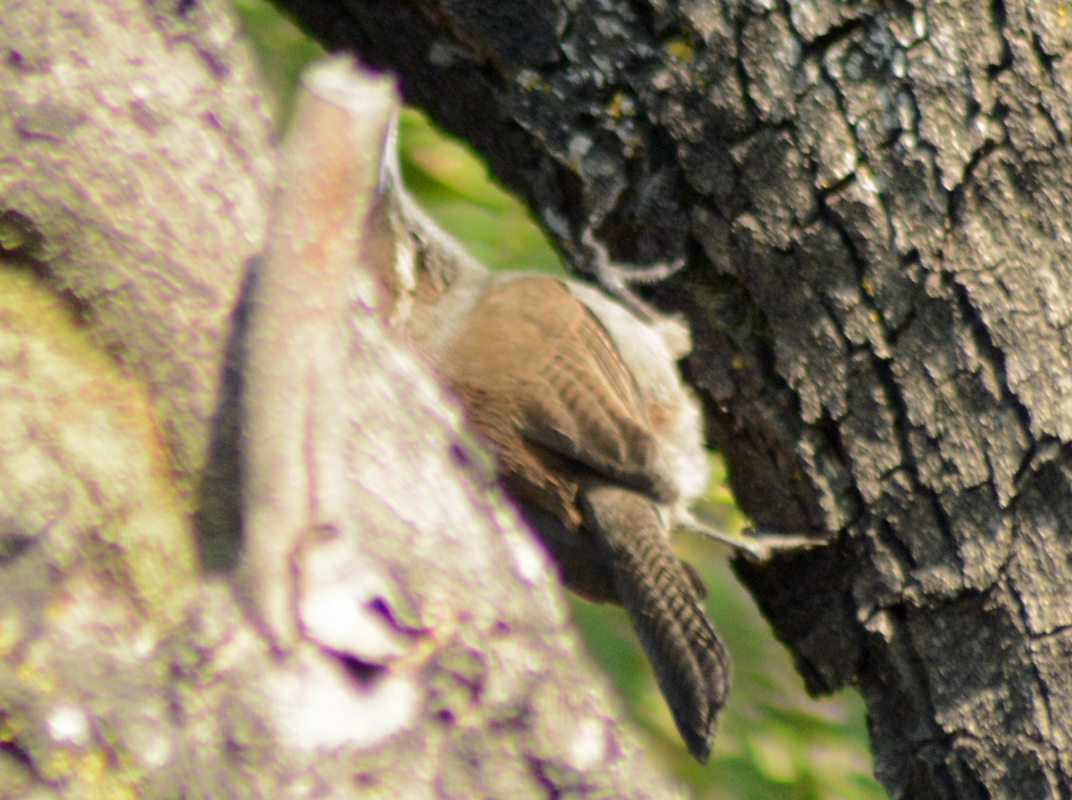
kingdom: Animalia
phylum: Chordata
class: Aves
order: Passeriformes
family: Troglodytidae
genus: Thryomanes
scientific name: Thryomanes bewickii
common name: Bewick's wren
